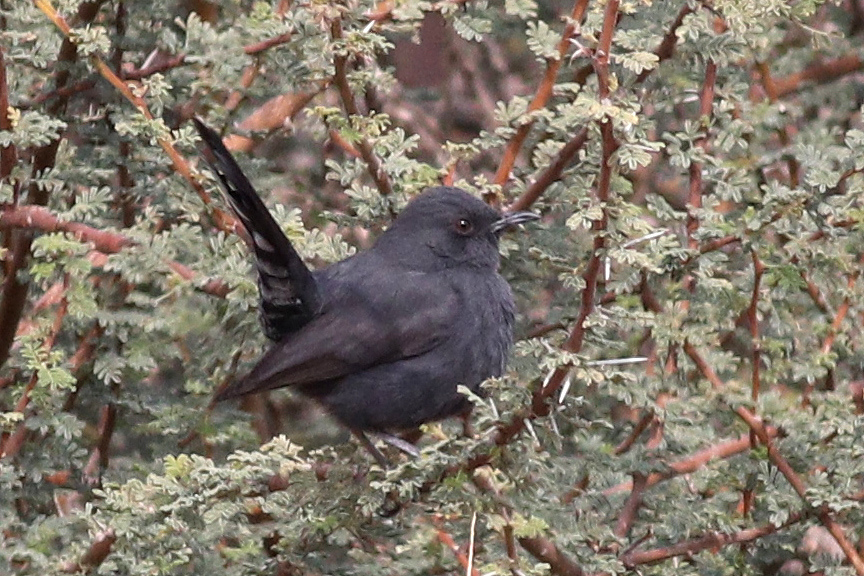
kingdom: Animalia
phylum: Chordata
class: Aves
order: Passeriformes
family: Muscicapidae
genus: Cercotrichas
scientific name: Cercotrichas podobe
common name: Black scrub robin
